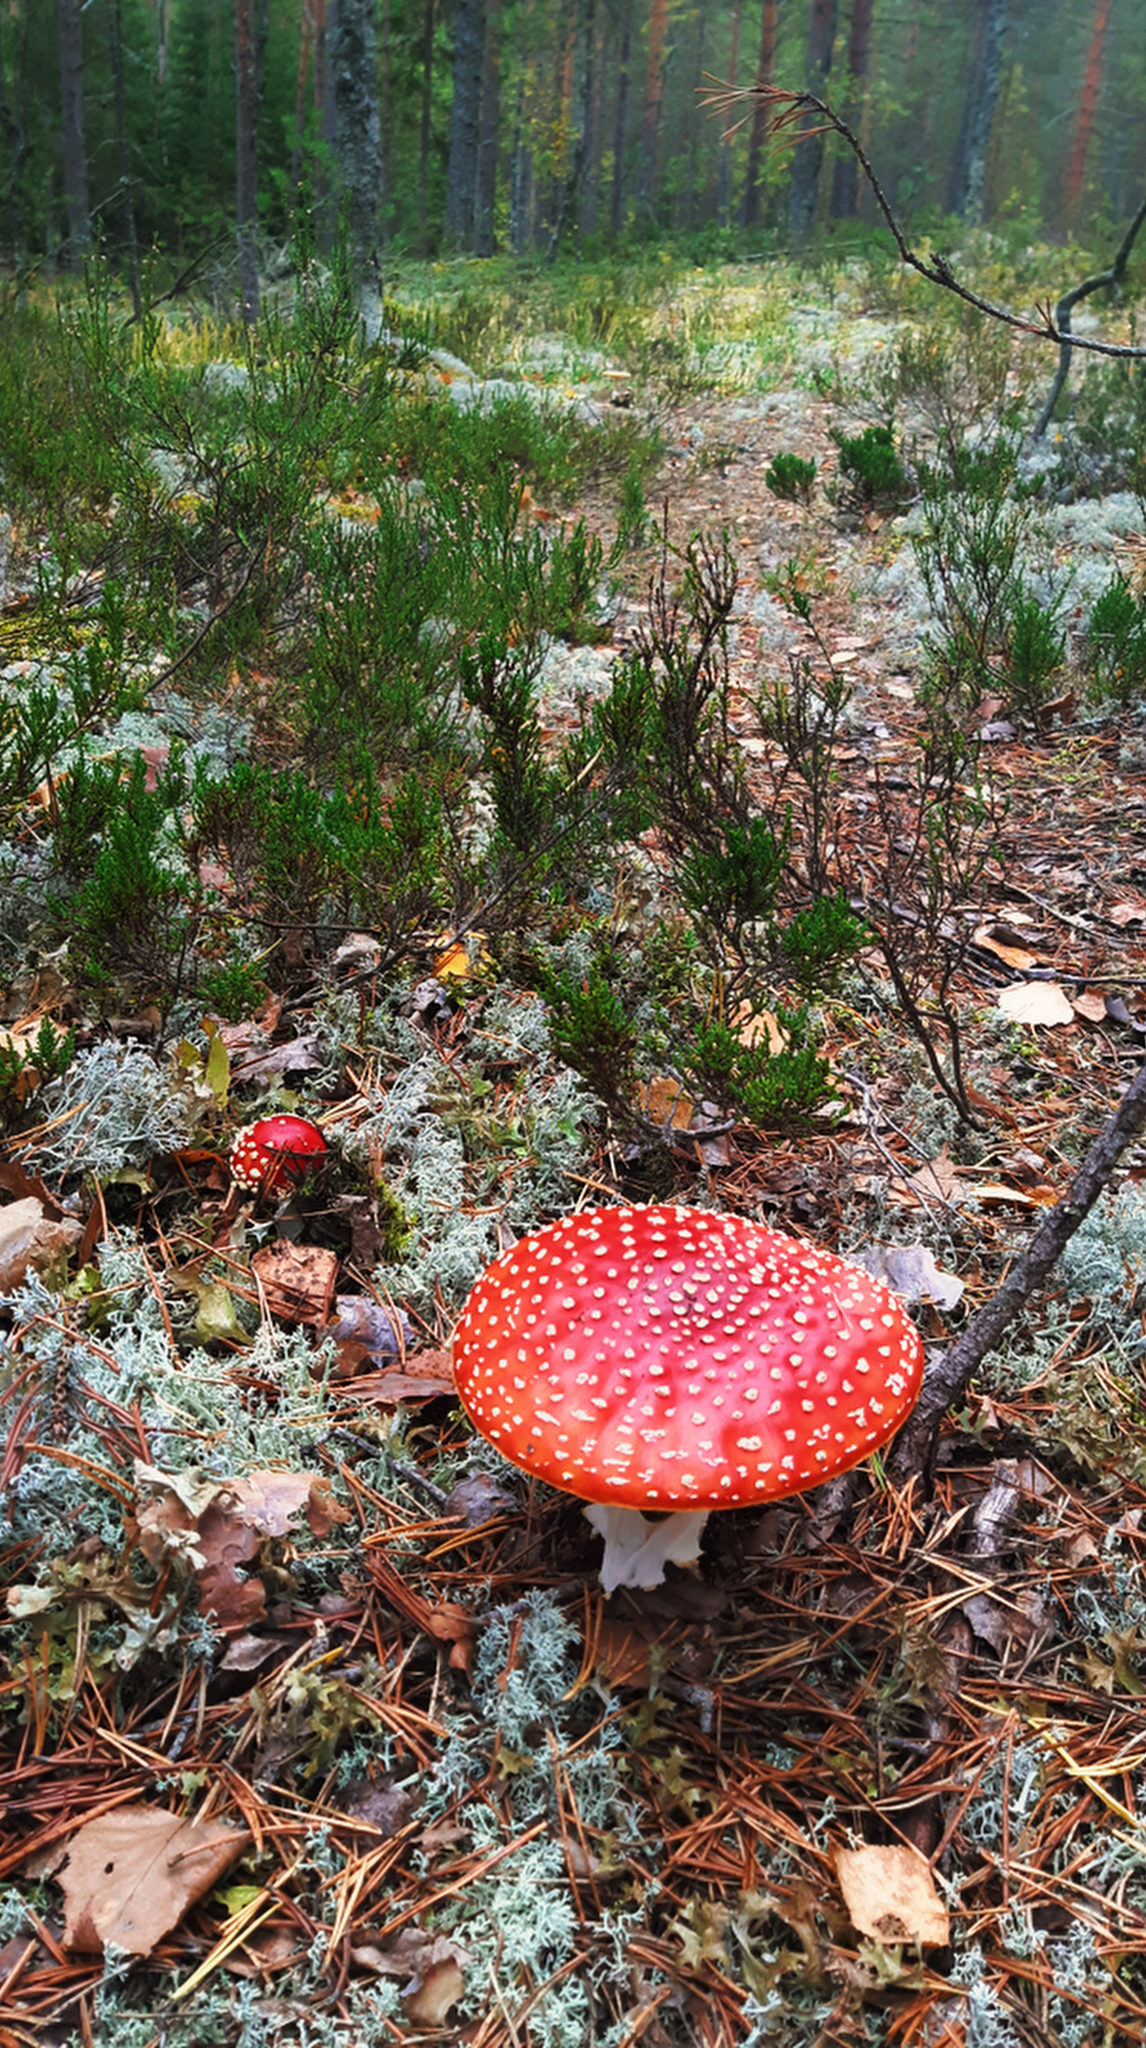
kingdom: Fungi
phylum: Basidiomycota
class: Agaricomycetes
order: Agaricales
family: Amanitaceae
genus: Amanita
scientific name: Amanita muscaria
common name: Fly agaric
